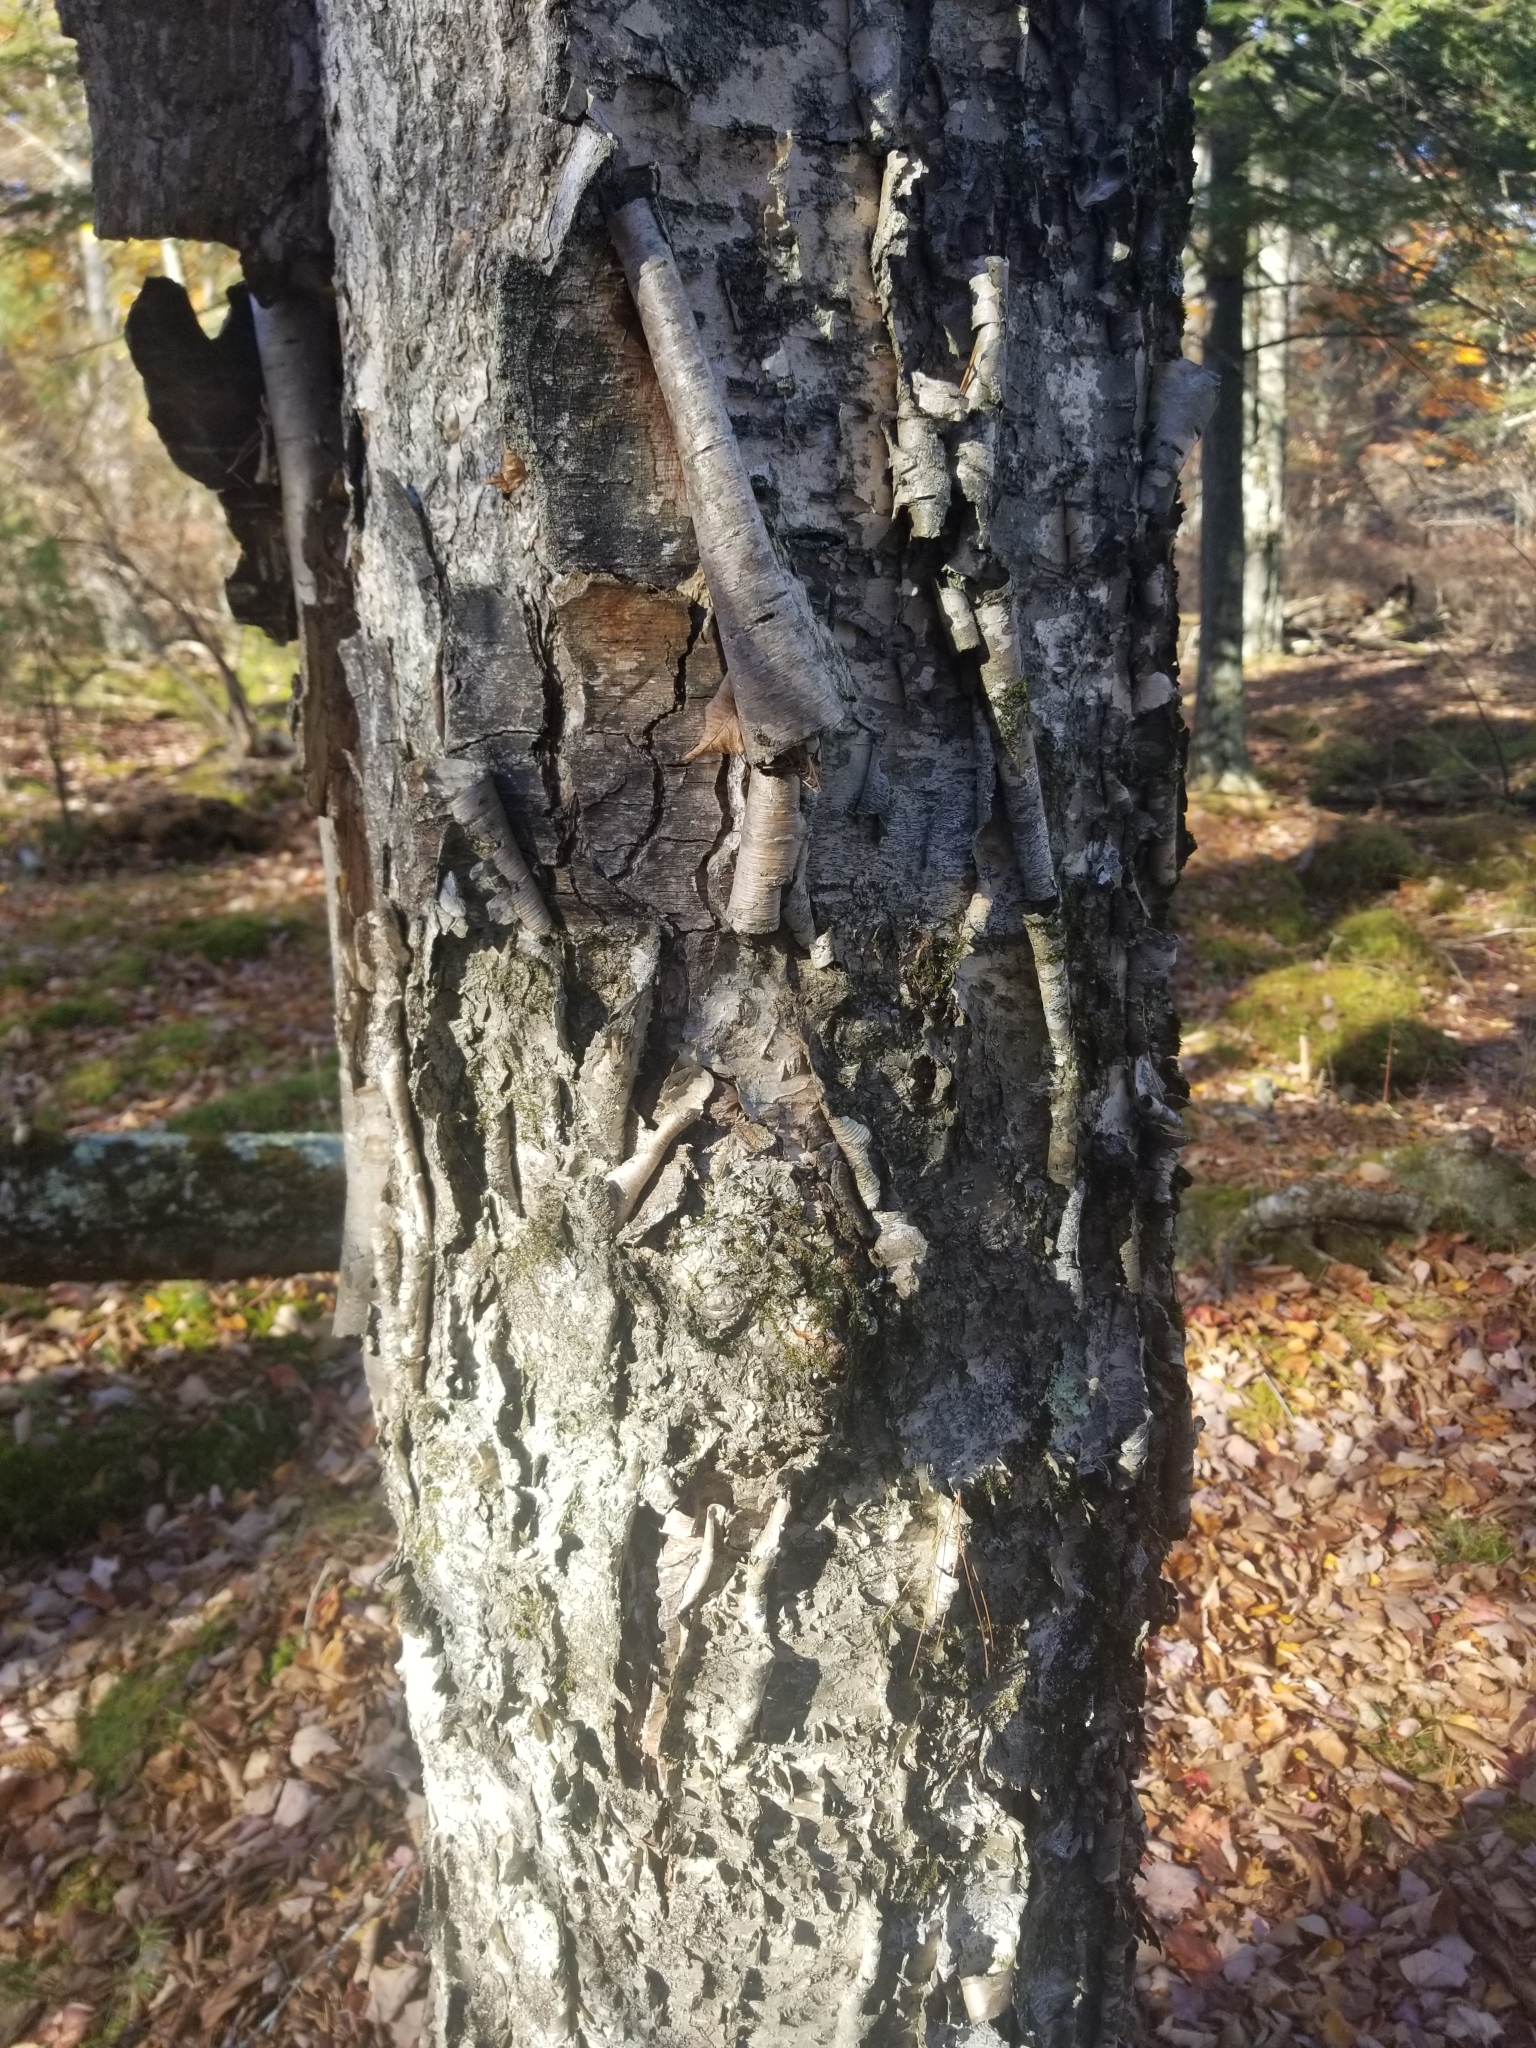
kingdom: Plantae
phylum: Tracheophyta
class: Magnoliopsida
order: Fagales
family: Betulaceae
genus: Betula
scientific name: Betula alleghaniensis
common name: Yellow birch
